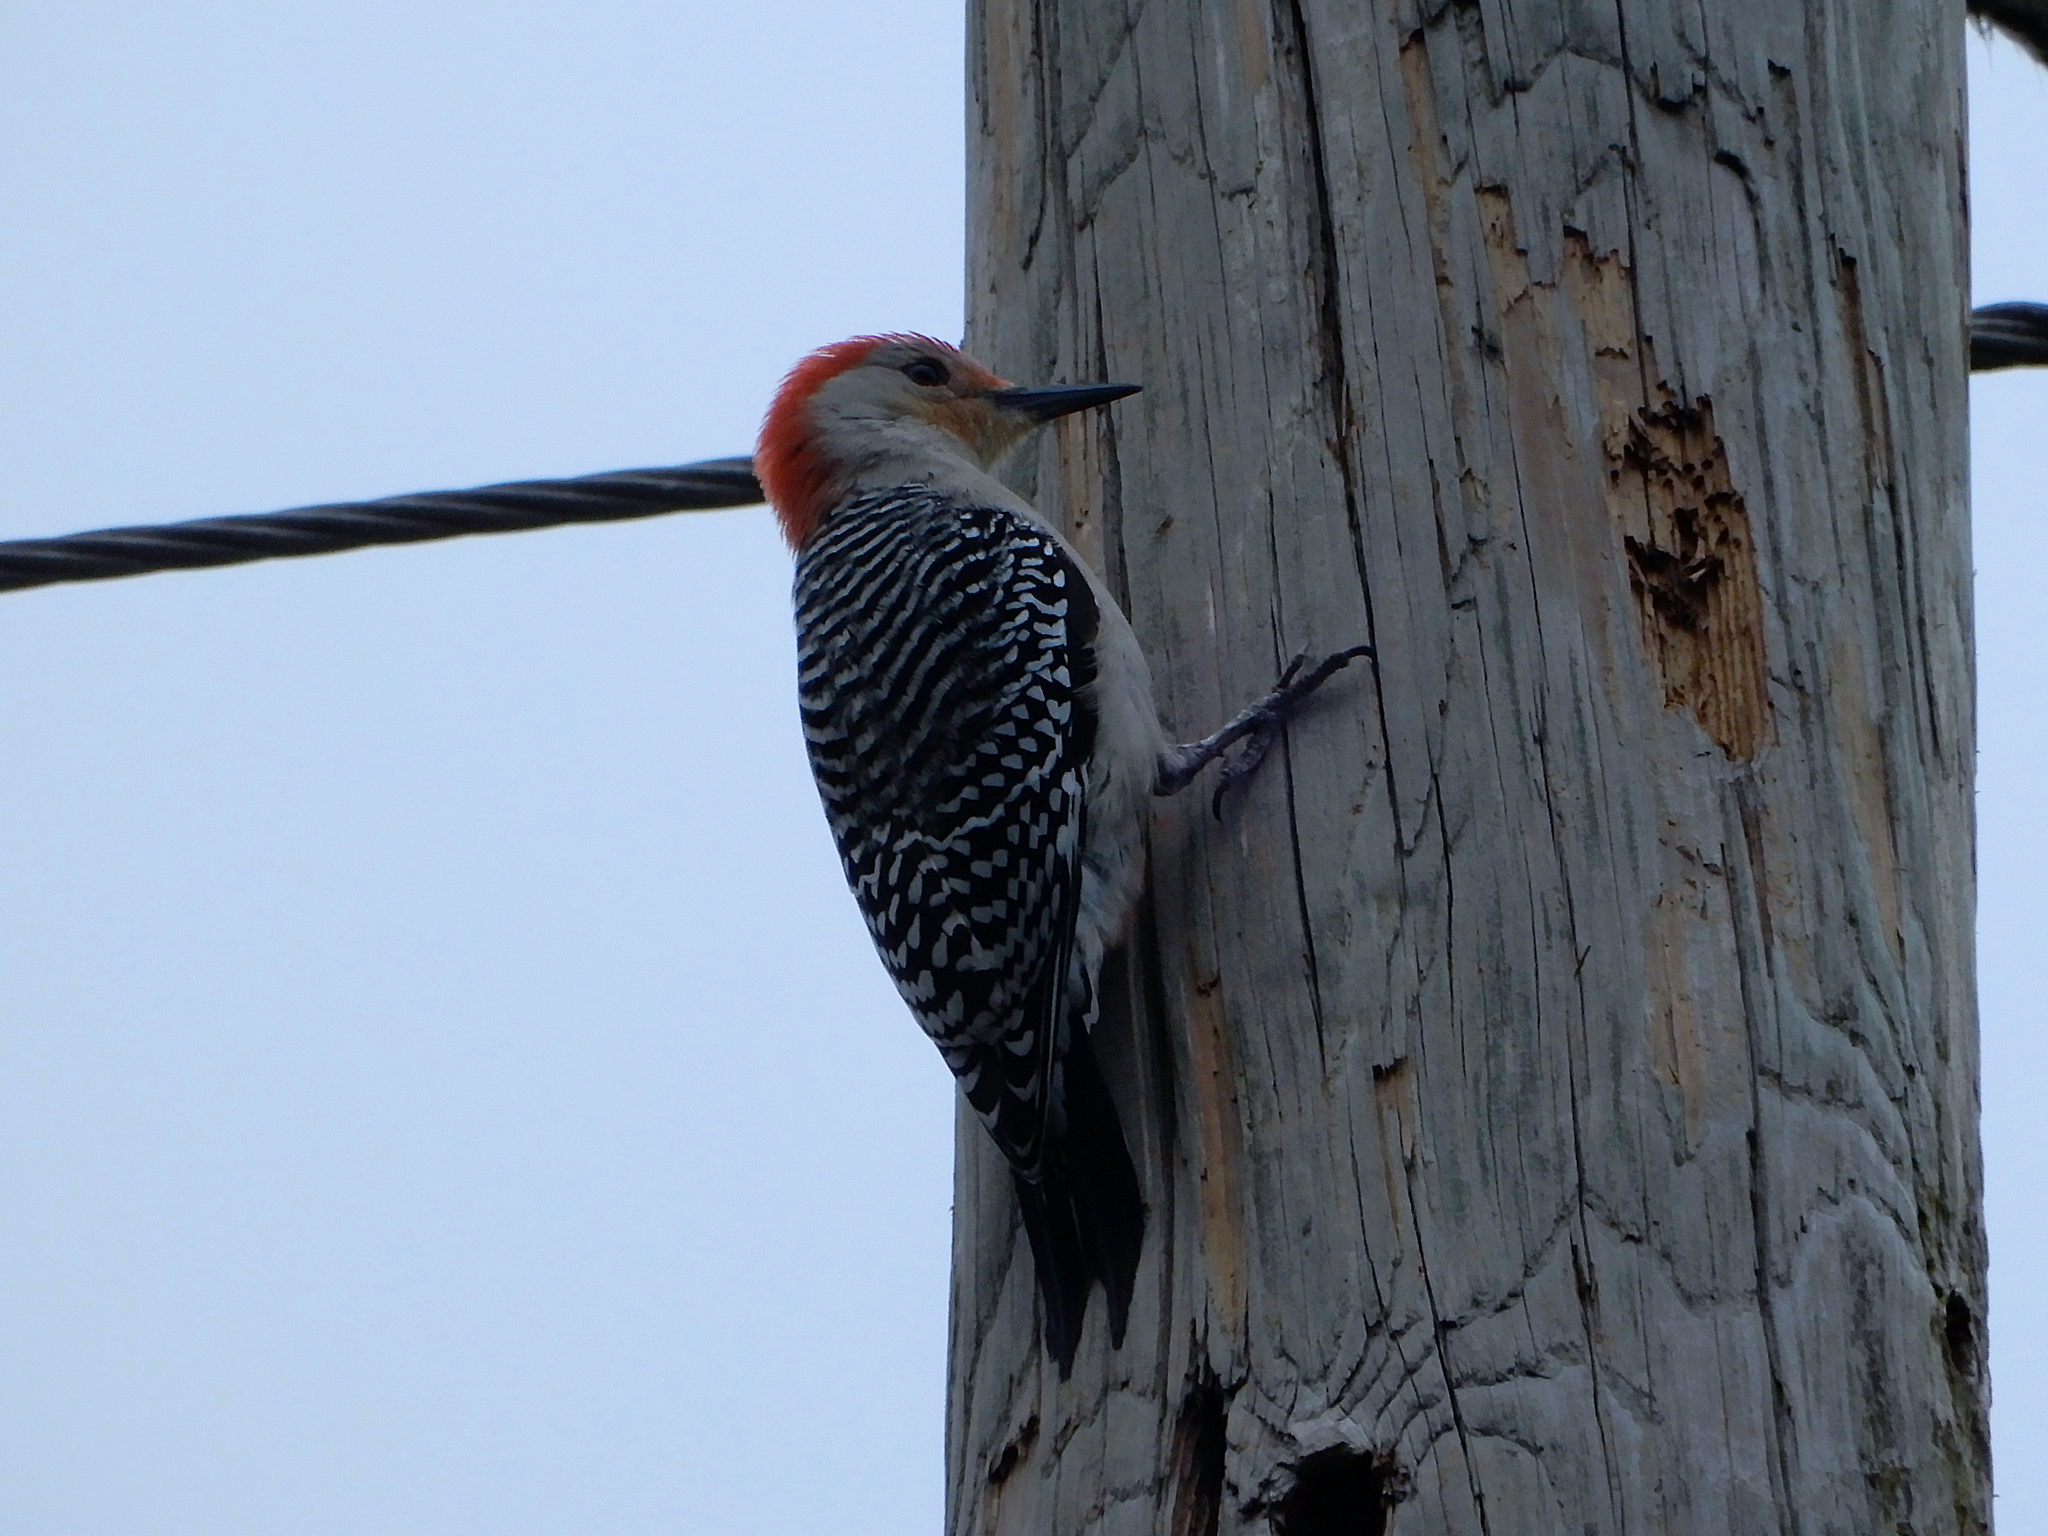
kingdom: Animalia
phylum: Chordata
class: Aves
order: Piciformes
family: Picidae
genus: Melanerpes
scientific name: Melanerpes carolinus
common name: Red-bellied woodpecker
